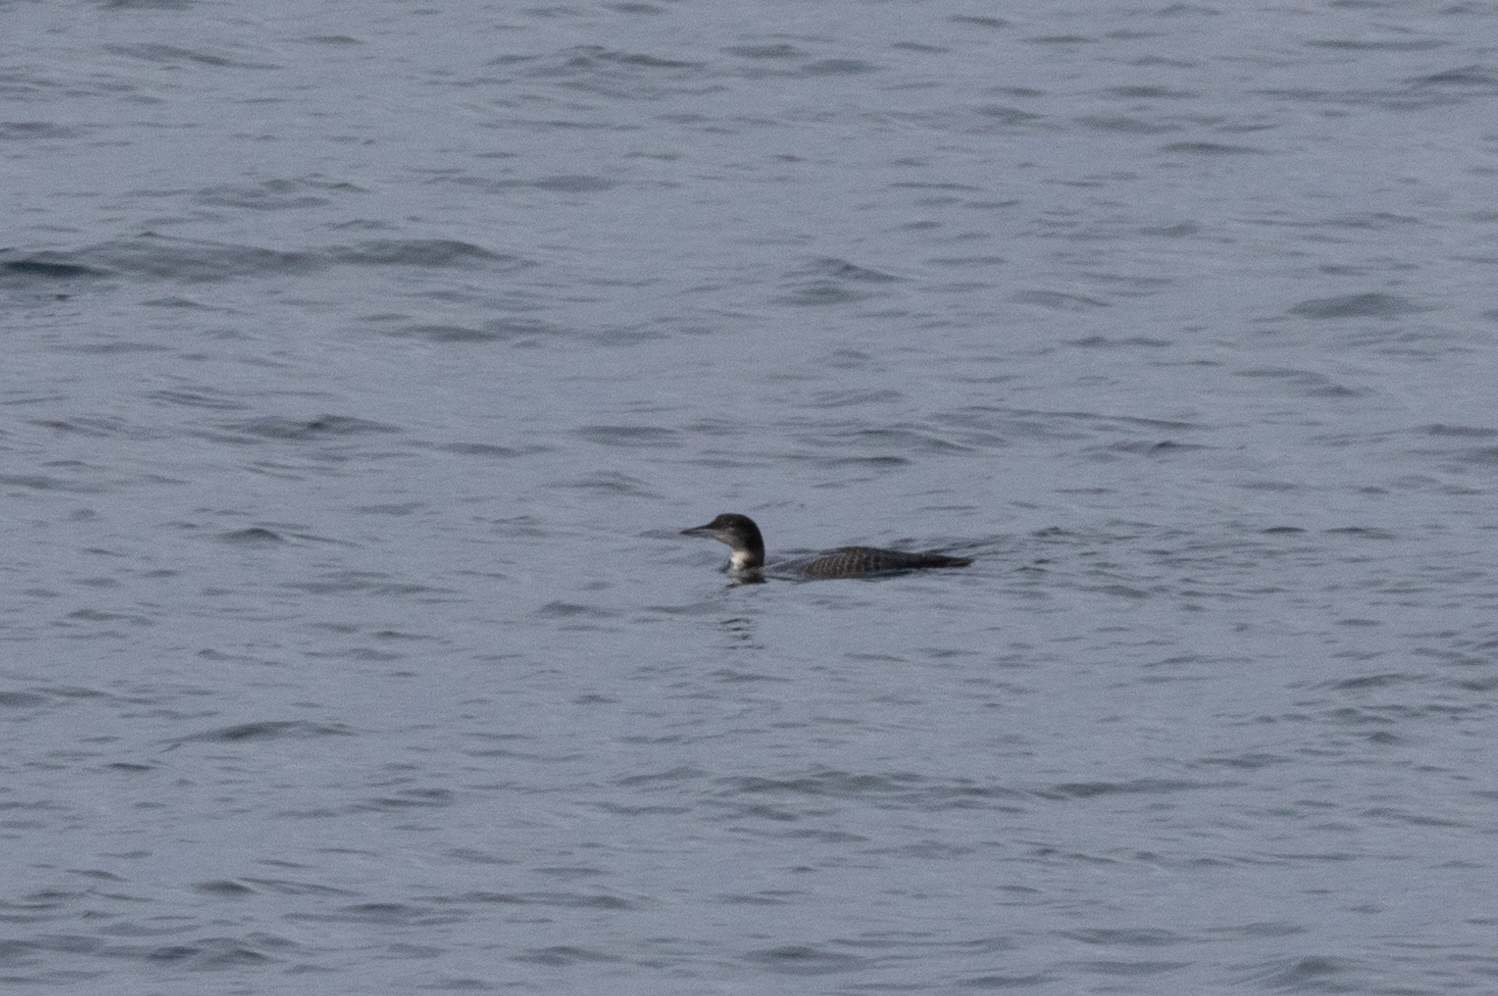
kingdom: Animalia
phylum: Chordata
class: Aves
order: Gaviiformes
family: Gaviidae
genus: Gavia
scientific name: Gavia immer
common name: Common loon
